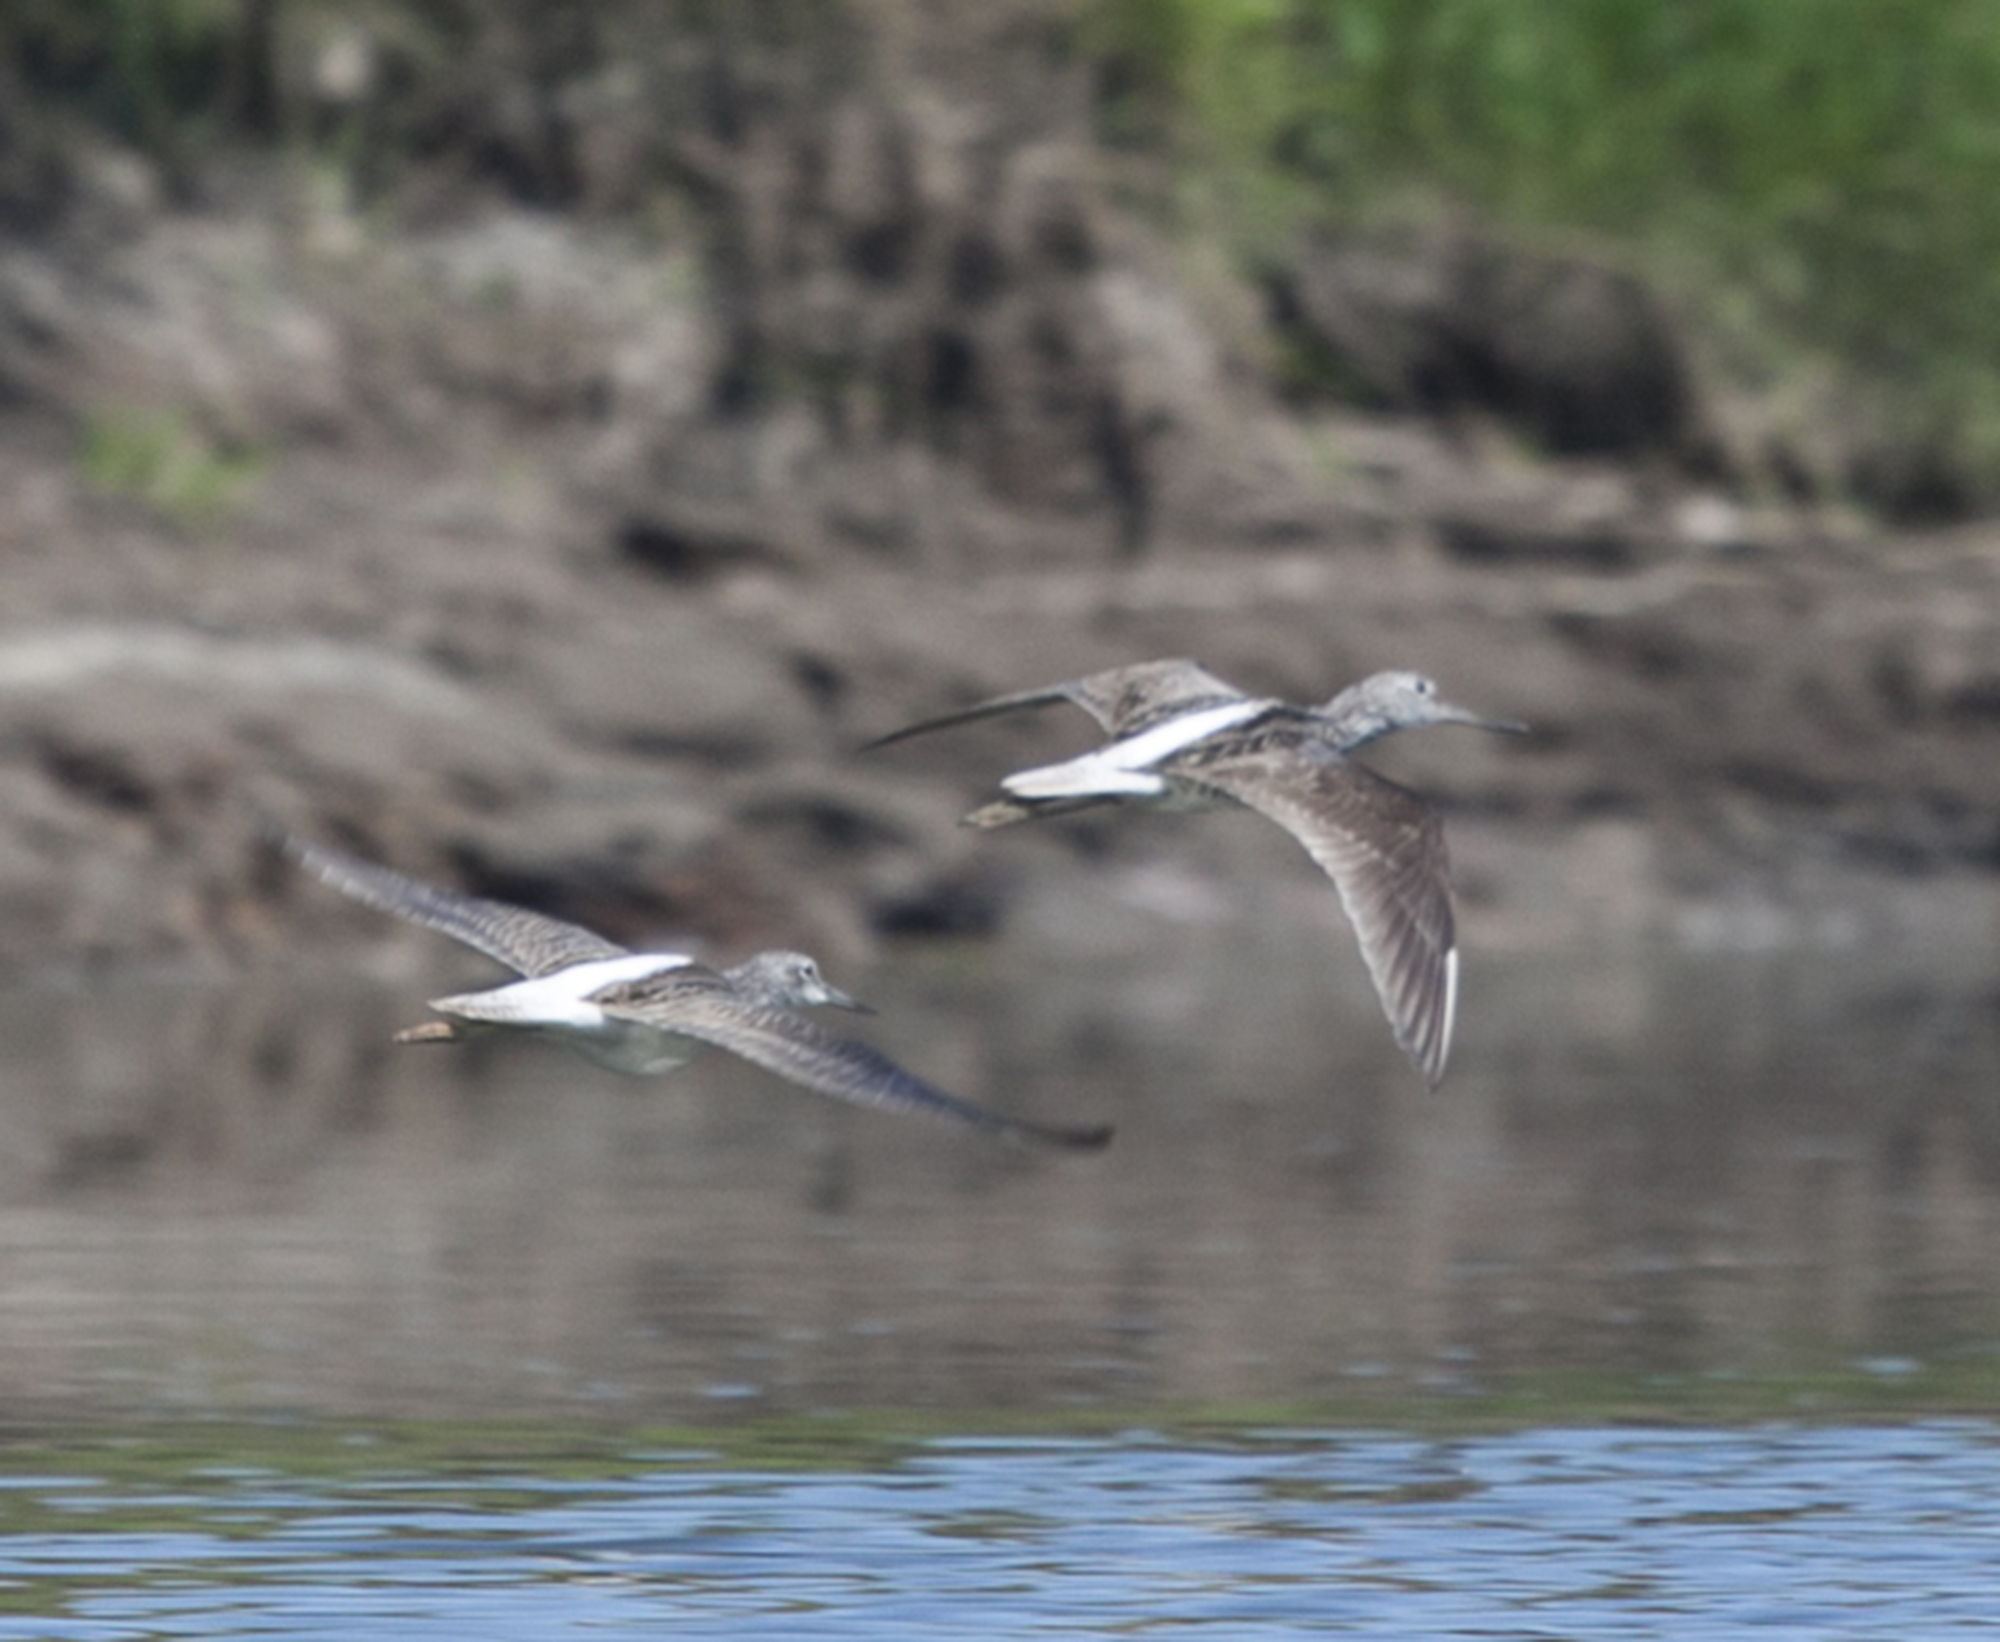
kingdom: Animalia
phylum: Chordata
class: Aves
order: Charadriiformes
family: Scolopacidae
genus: Tringa
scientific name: Tringa nebularia
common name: Common greenshank
